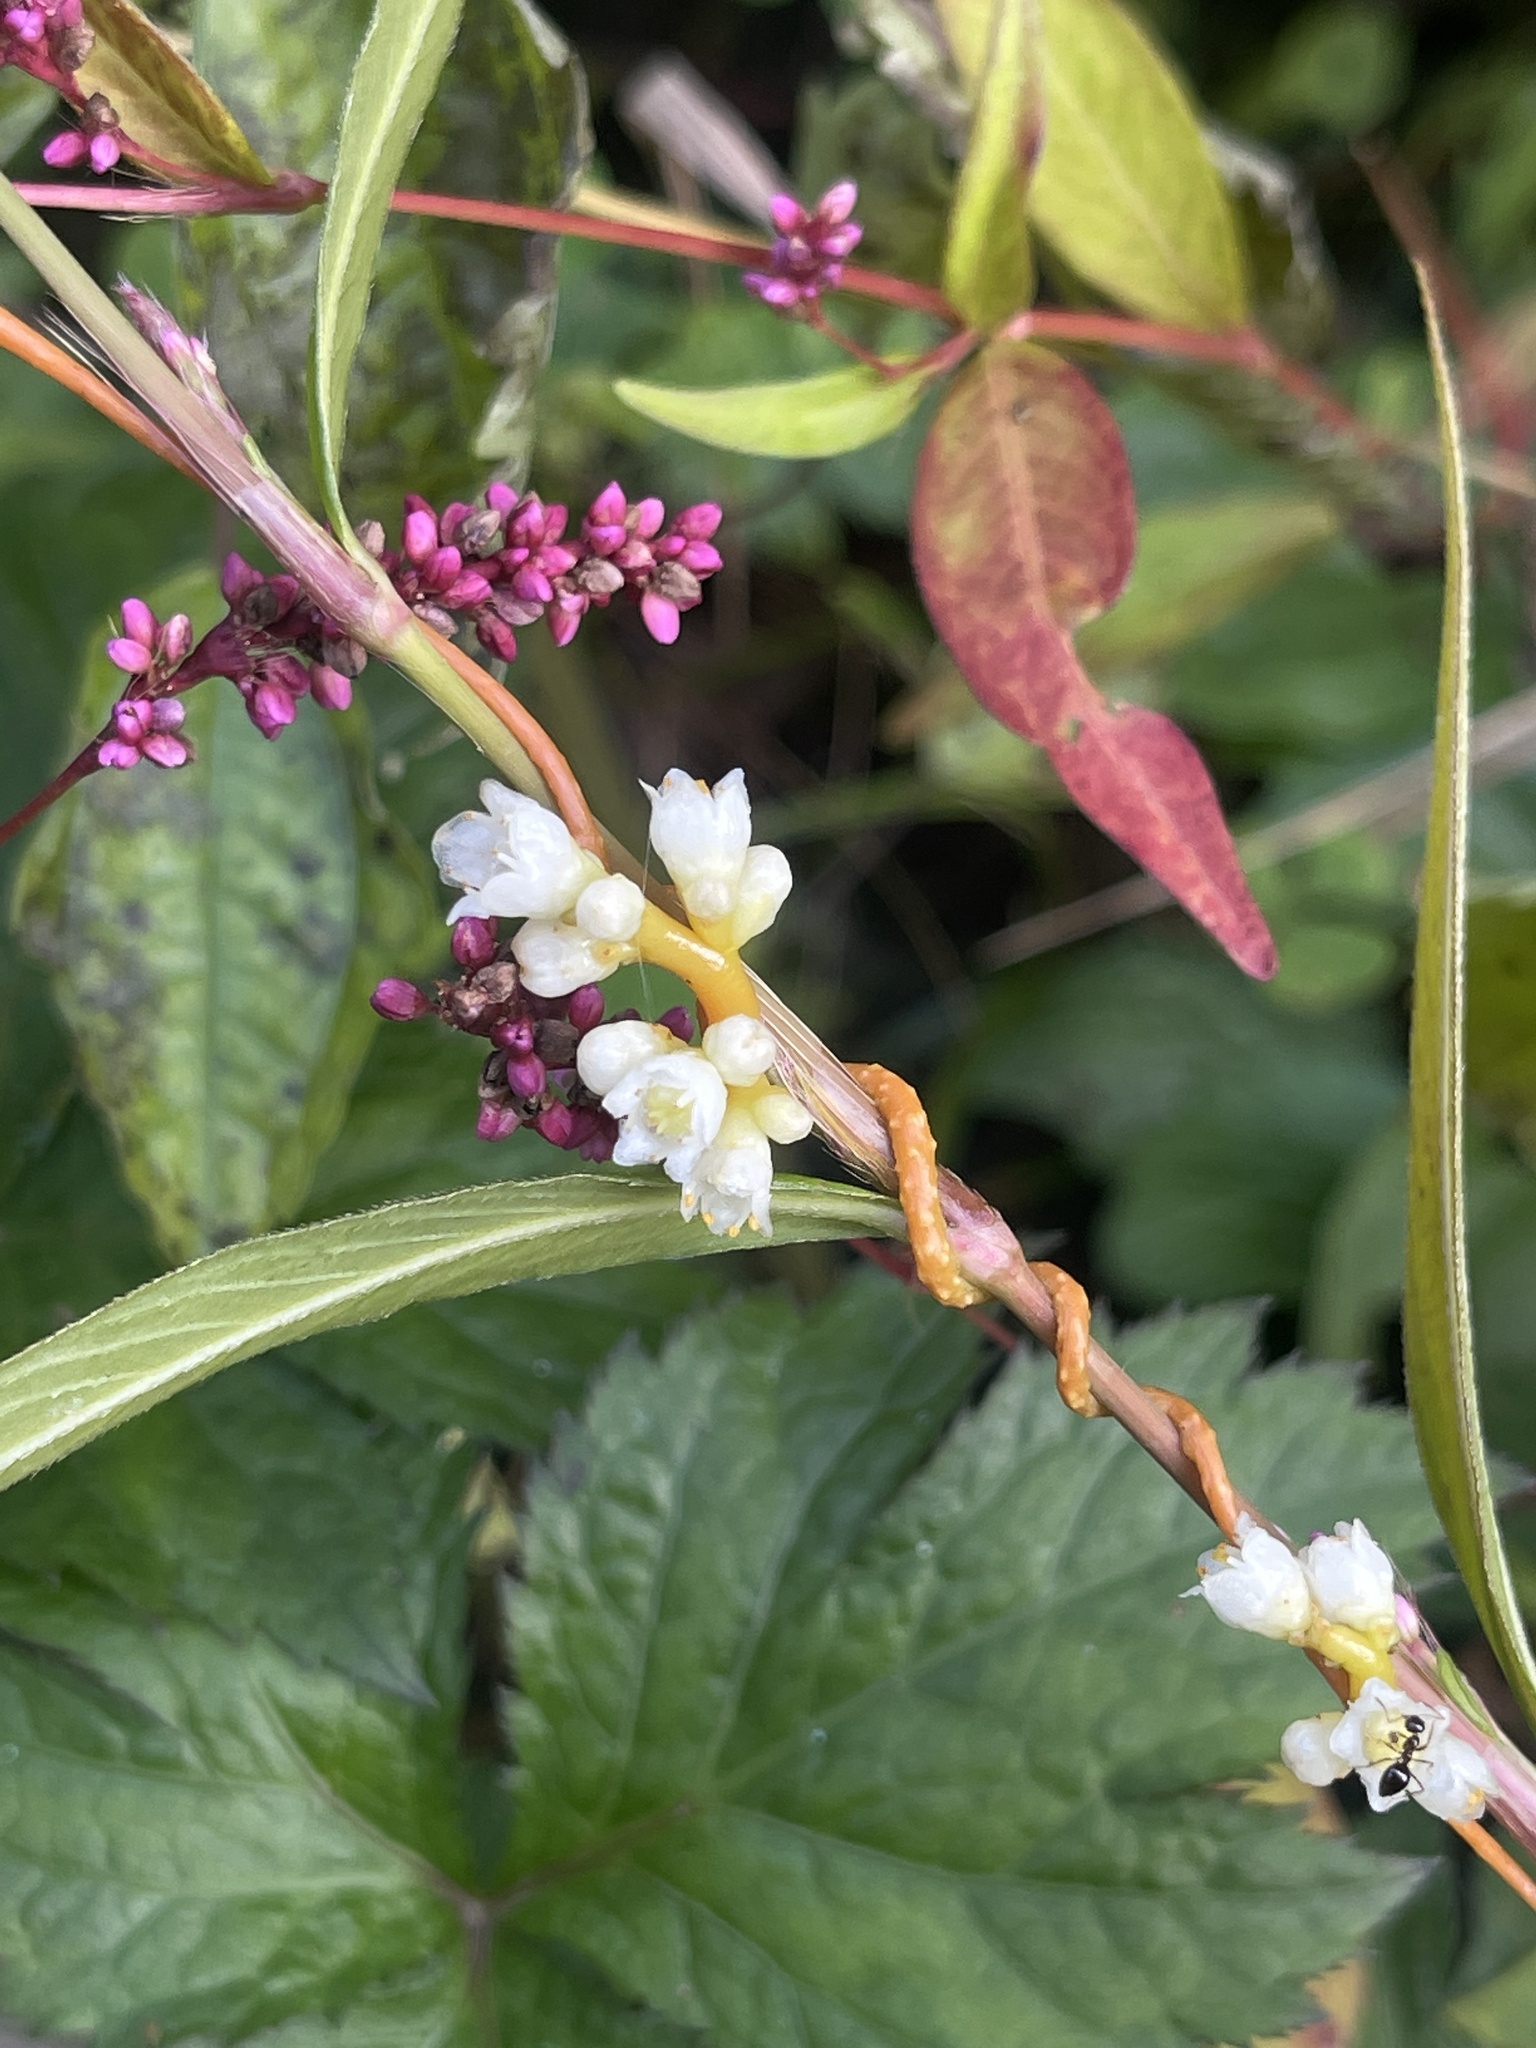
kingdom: Plantae
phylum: Tracheophyta
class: Magnoliopsida
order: Solanales
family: Convolvulaceae
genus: Cuscuta
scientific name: Cuscuta gronovii
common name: Common dodder
